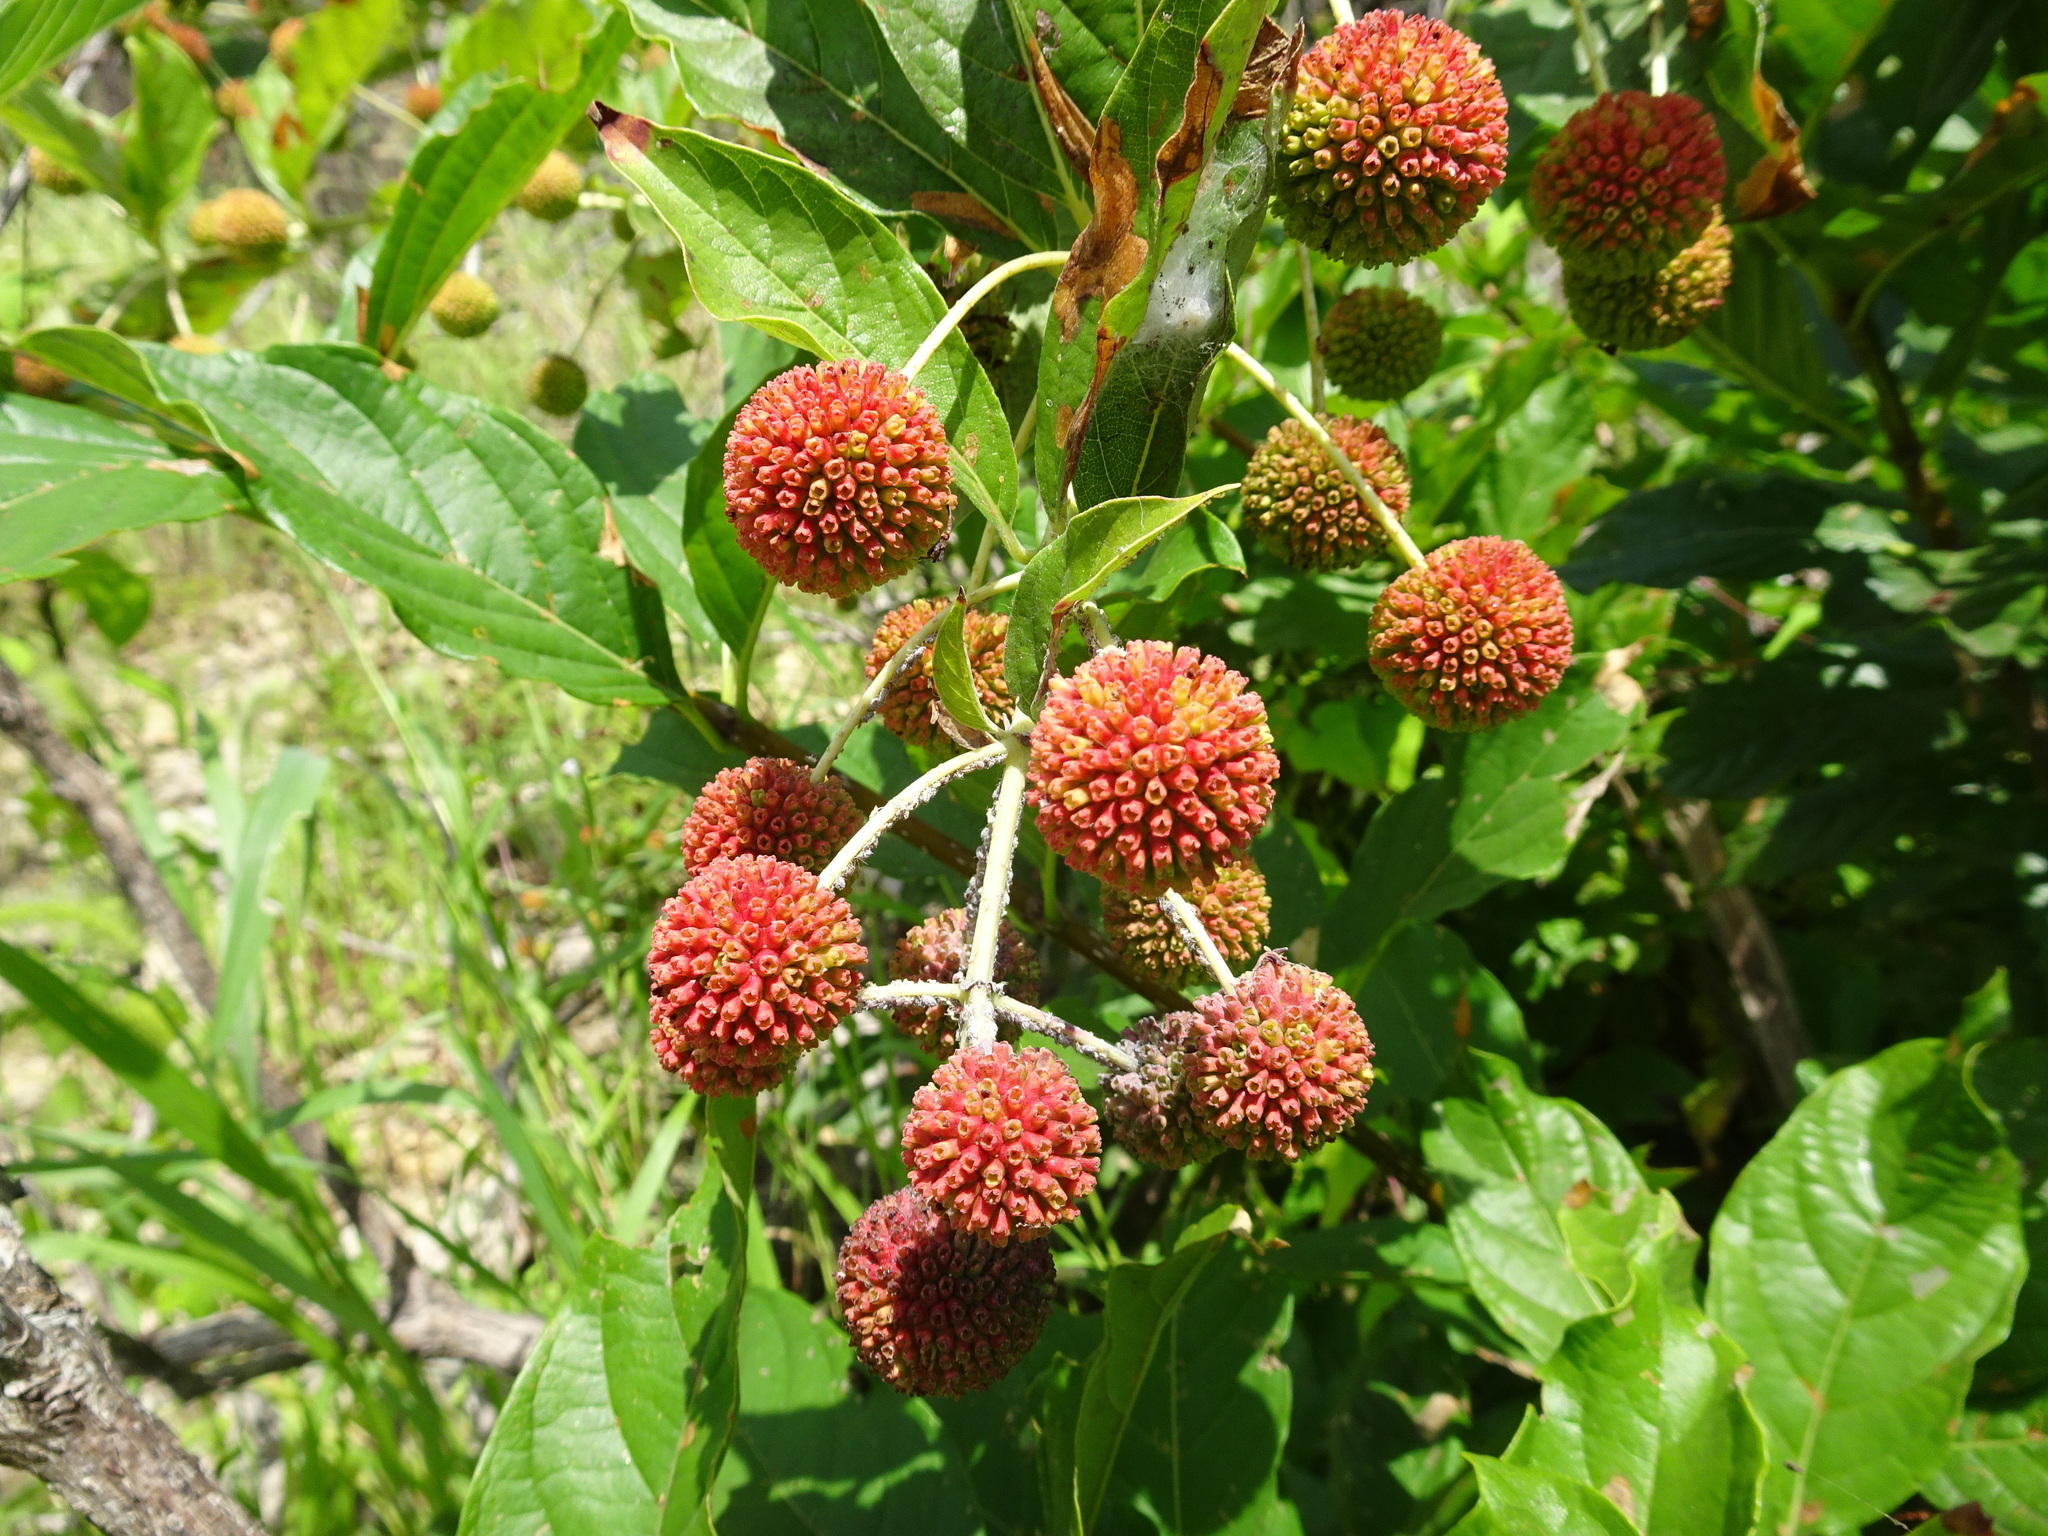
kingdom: Plantae
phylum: Tracheophyta
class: Magnoliopsida
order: Gentianales
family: Rubiaceae
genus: Cephalanthus
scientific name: Cephalanthus occidentalis
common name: Button-willow
